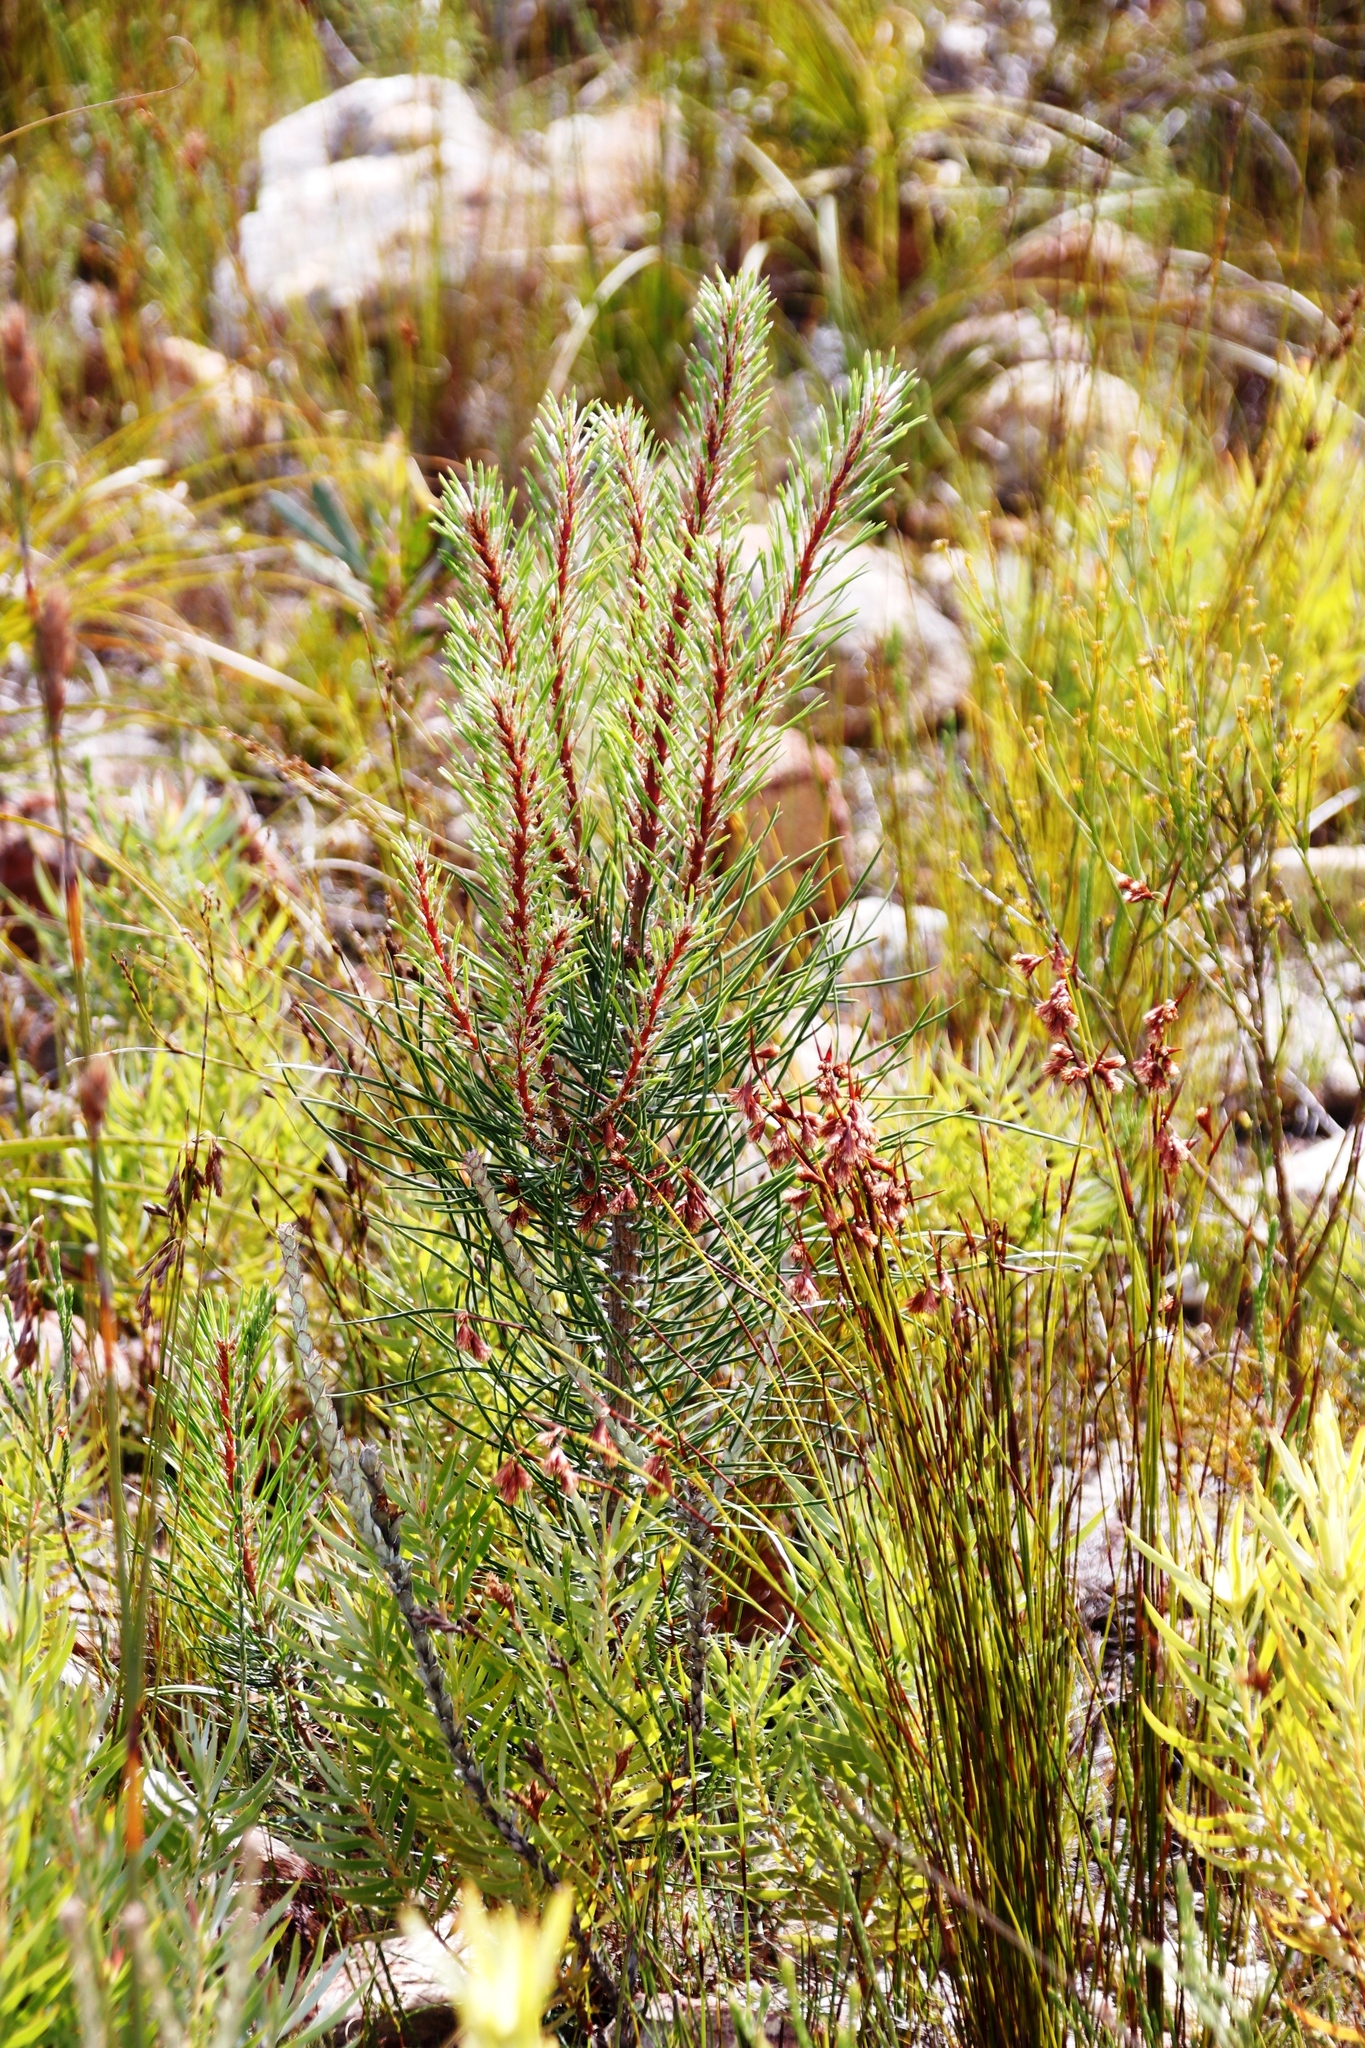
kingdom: Plantae
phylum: Tracheophyta
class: Pinopsida
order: Pinales
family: Pinaceae
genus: Pinus
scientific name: Pinus pinaster
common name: Maritime pine
